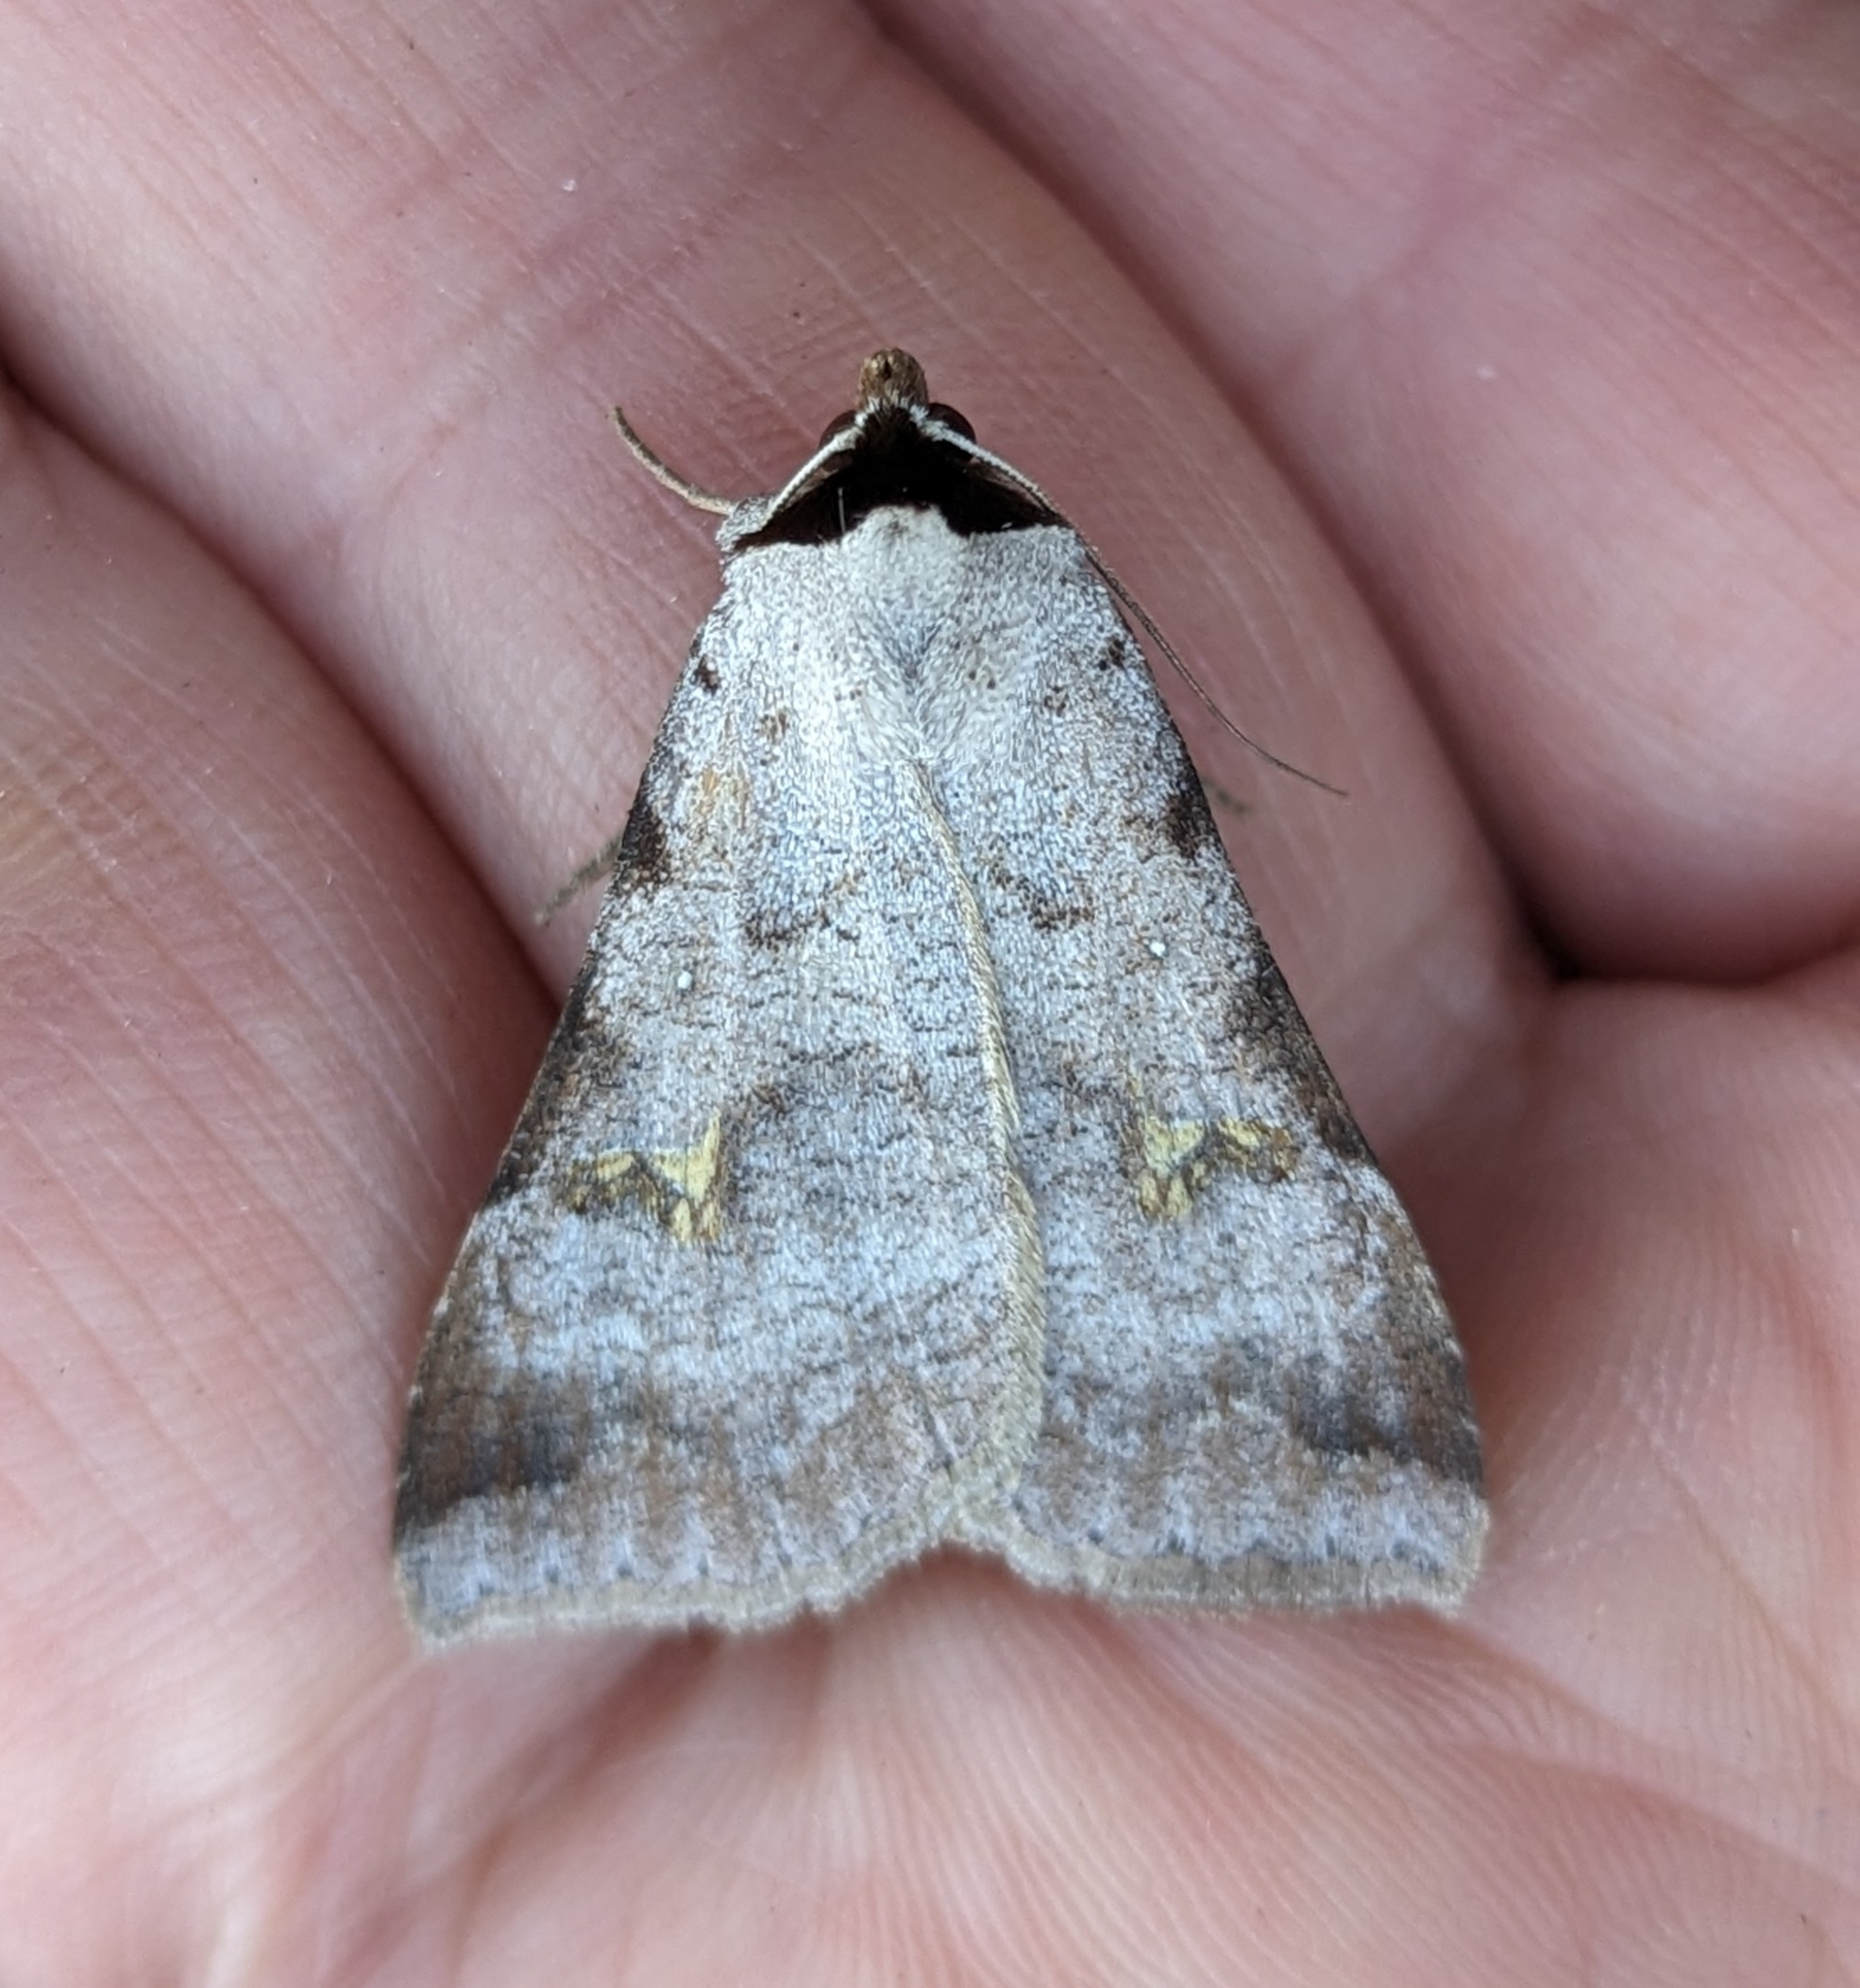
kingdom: Animalia
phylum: Arthropoda
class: Insecta
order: Lepidoptera
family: Erebidae
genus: Lygephila
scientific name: Lygephila victoria
